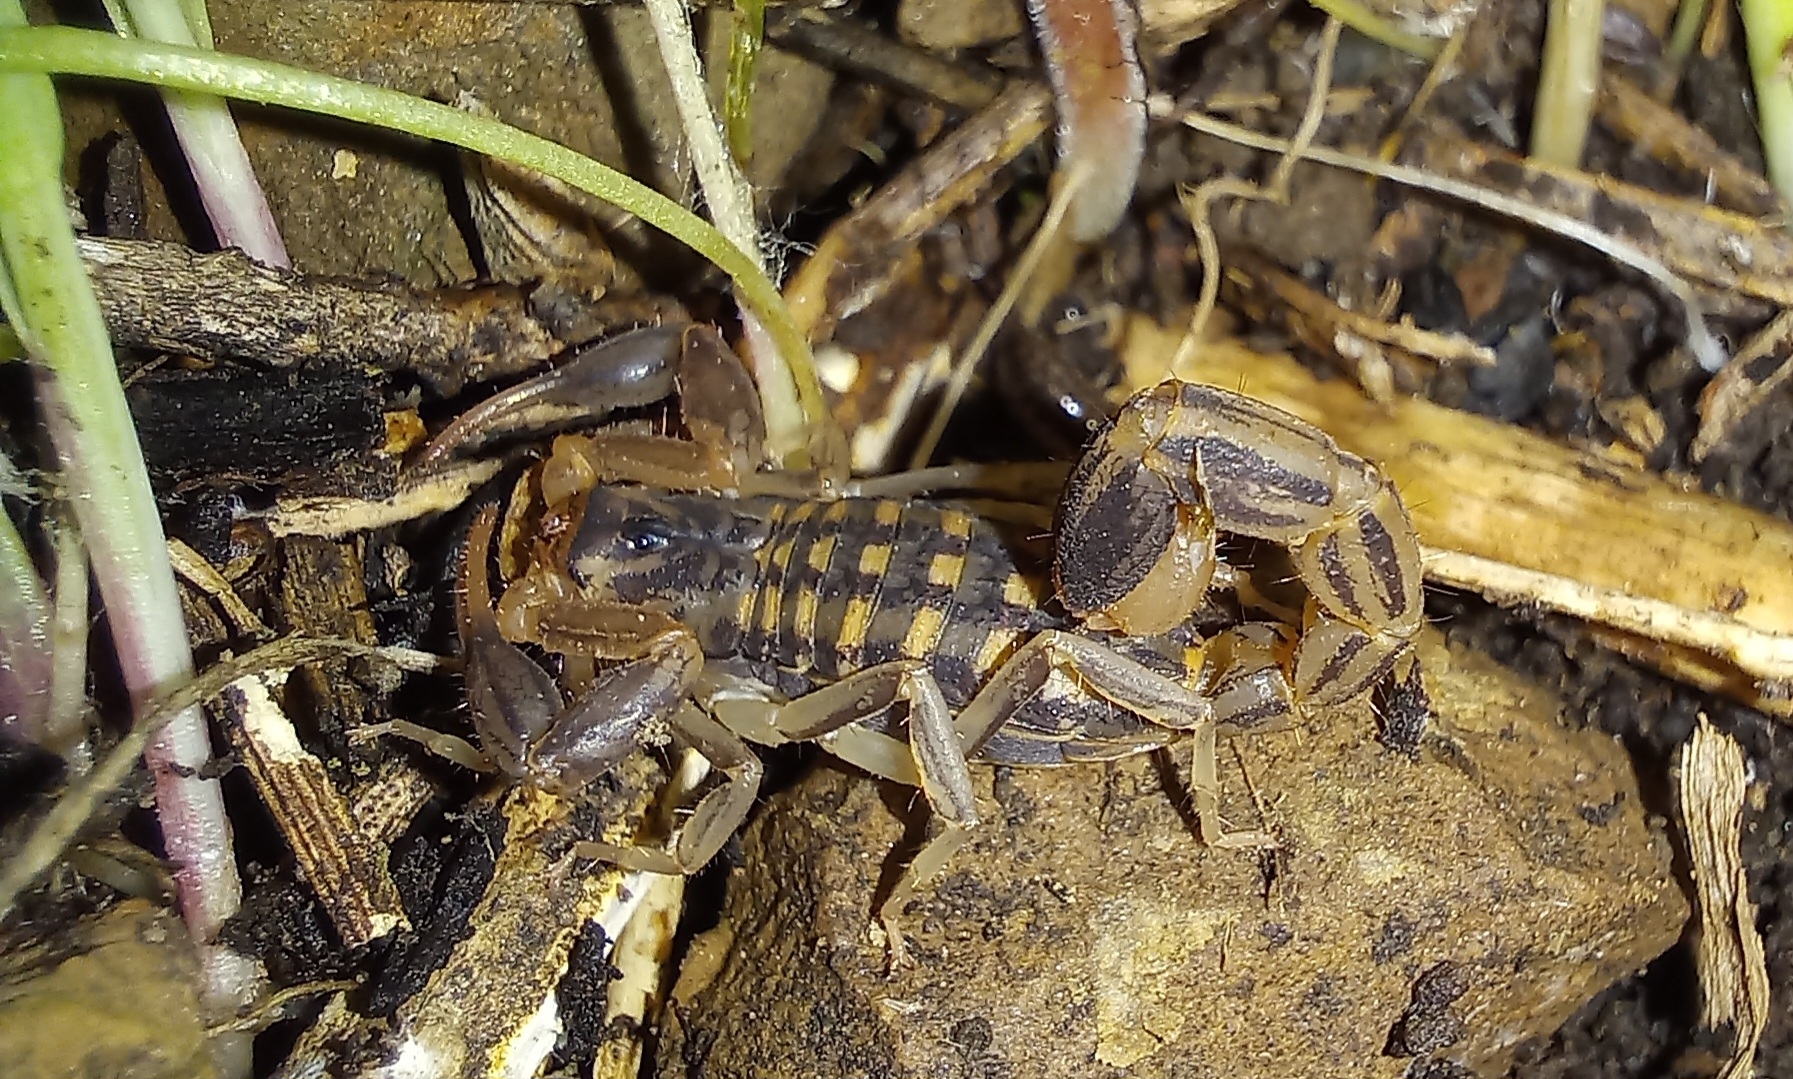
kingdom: Animalia
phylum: Arthropoda
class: Arachnida
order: Scorpiones
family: Buthidae
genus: Uroplectes
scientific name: Uroplectes lineatus
